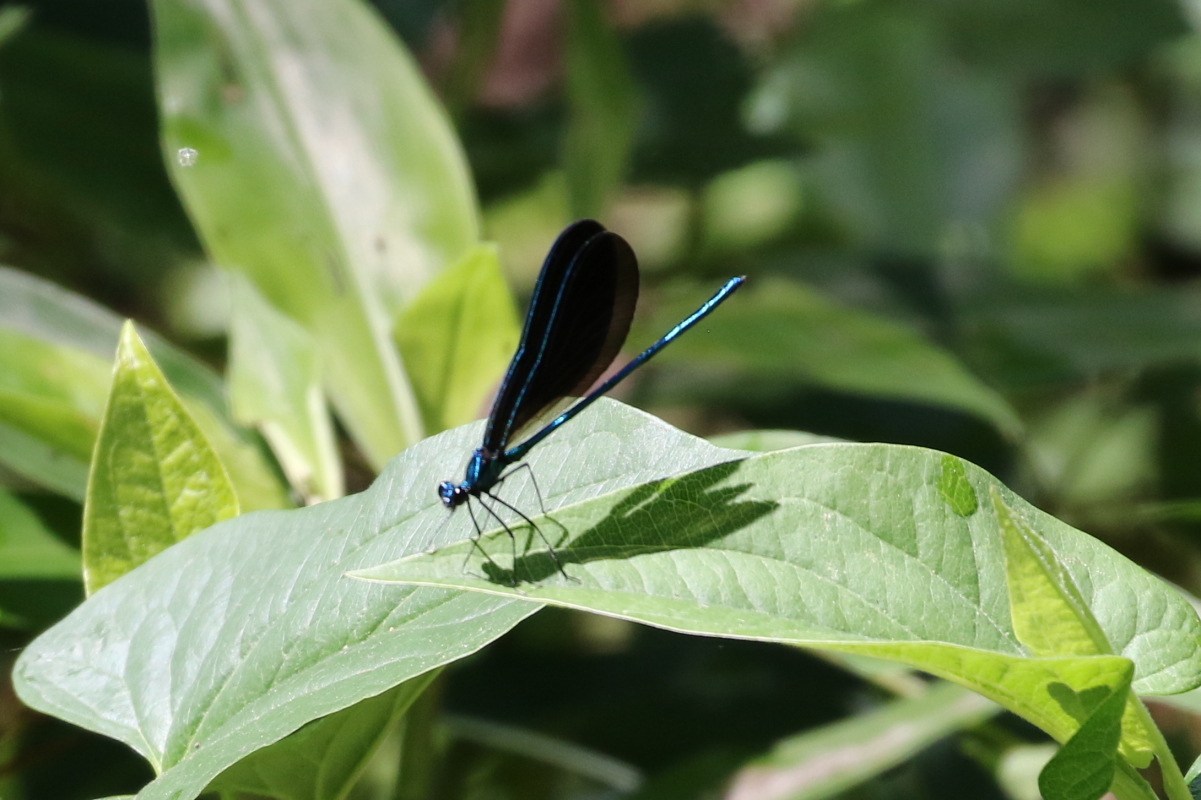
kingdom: Animalia
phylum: Arthropoda
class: Insecta
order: Odonata
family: Calopterygidae
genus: Calopteryx
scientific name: Calopteryx maculata
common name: Ebony jewelwing
